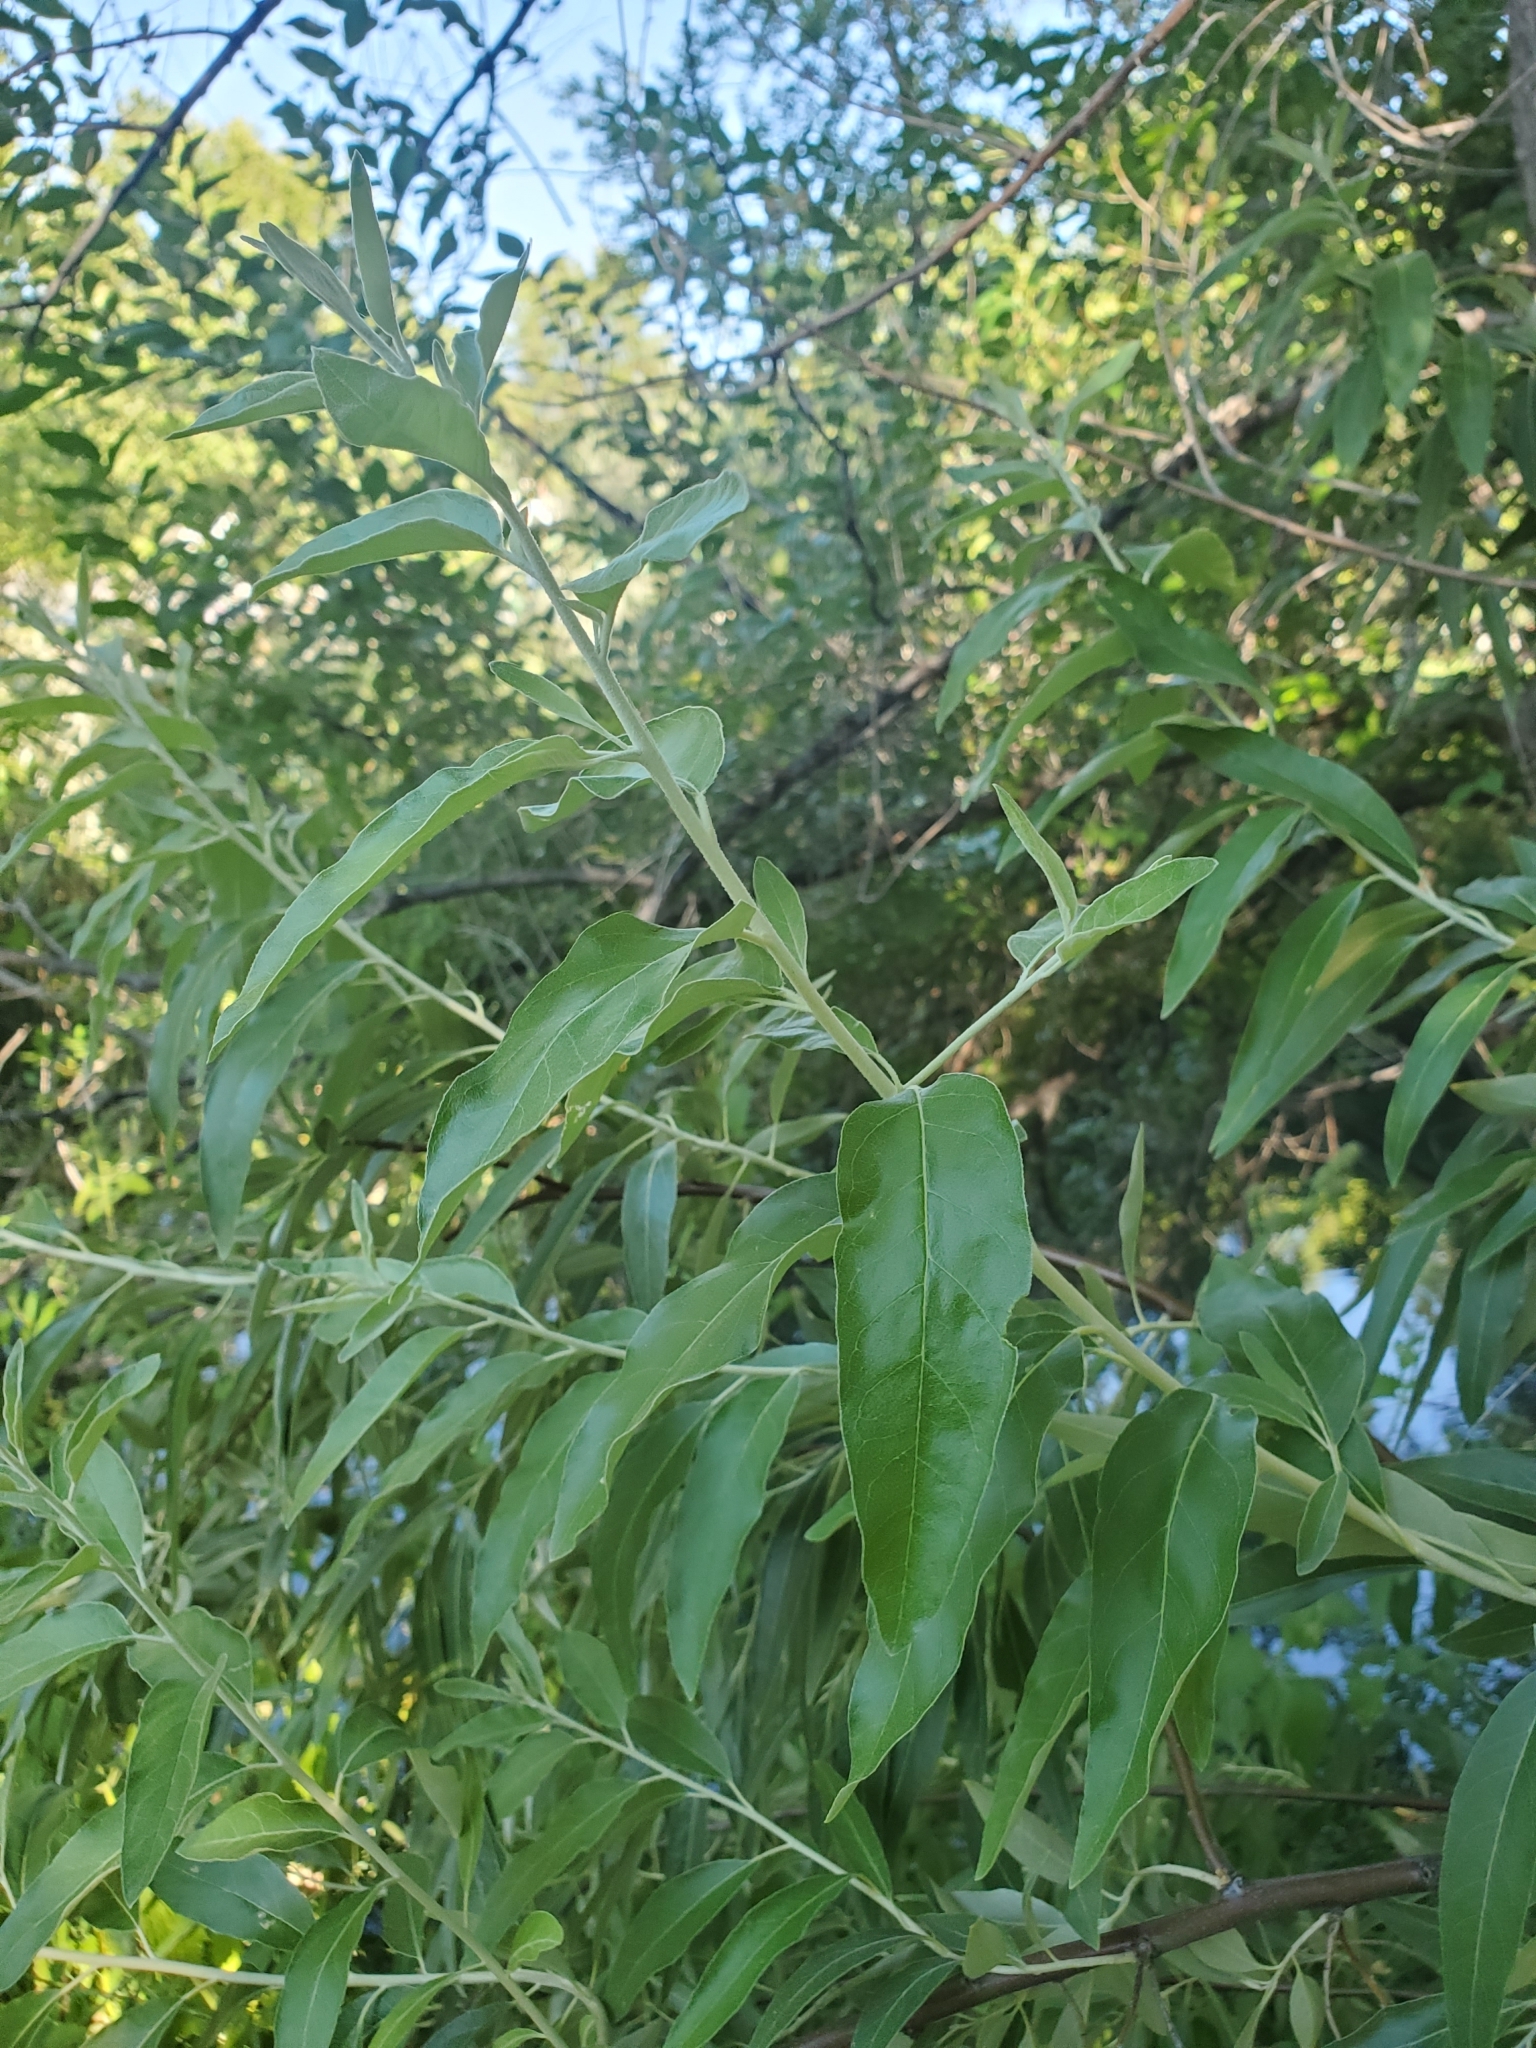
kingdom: Plantae
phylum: Tracheophyta
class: Magnoliopsida
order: Rosales
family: Elaeagnaceae
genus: Elaeagnus
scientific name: Elaeagnus angustifolia
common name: Russian olive
